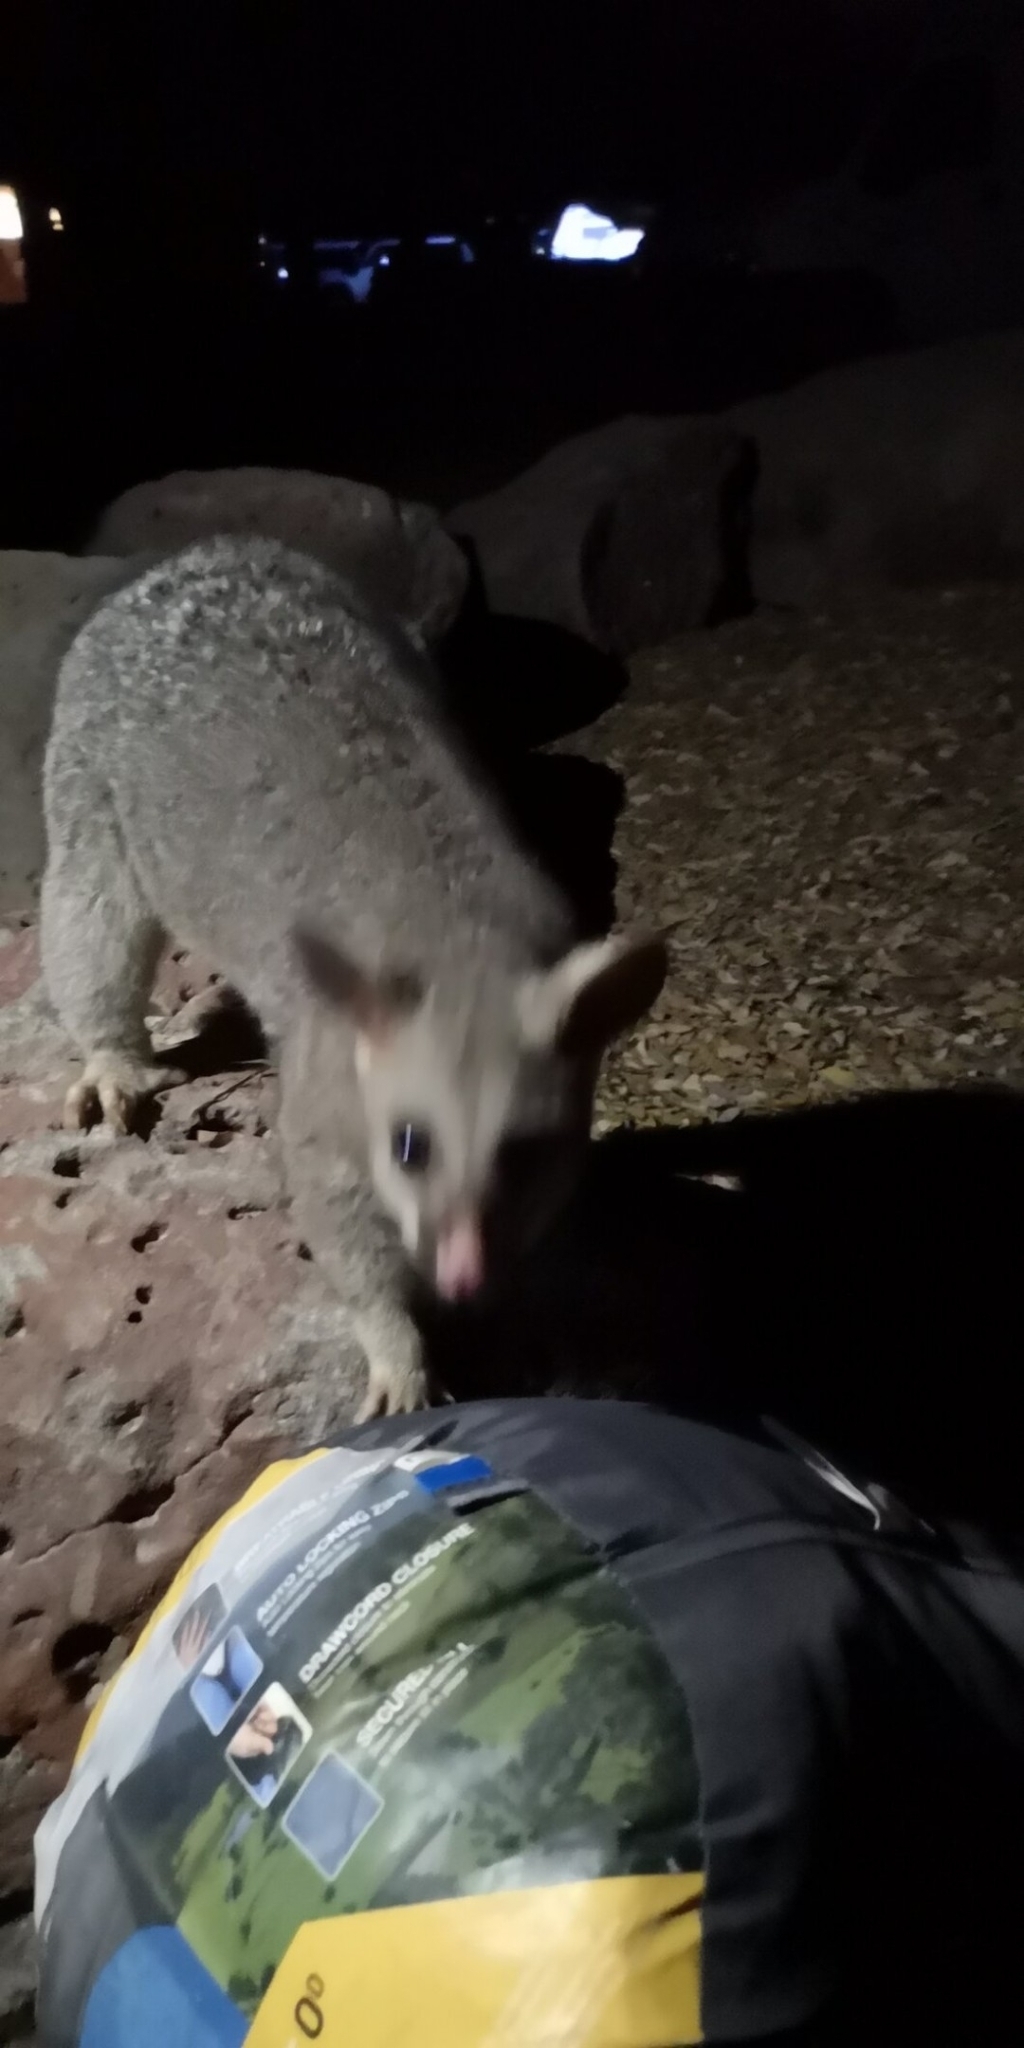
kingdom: Animalia
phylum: Chordata
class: Mammalia
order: Diprotodontia
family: Phalangeridae
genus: Trichosurus
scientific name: Trichosurus vulpecula
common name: Common brushtail
